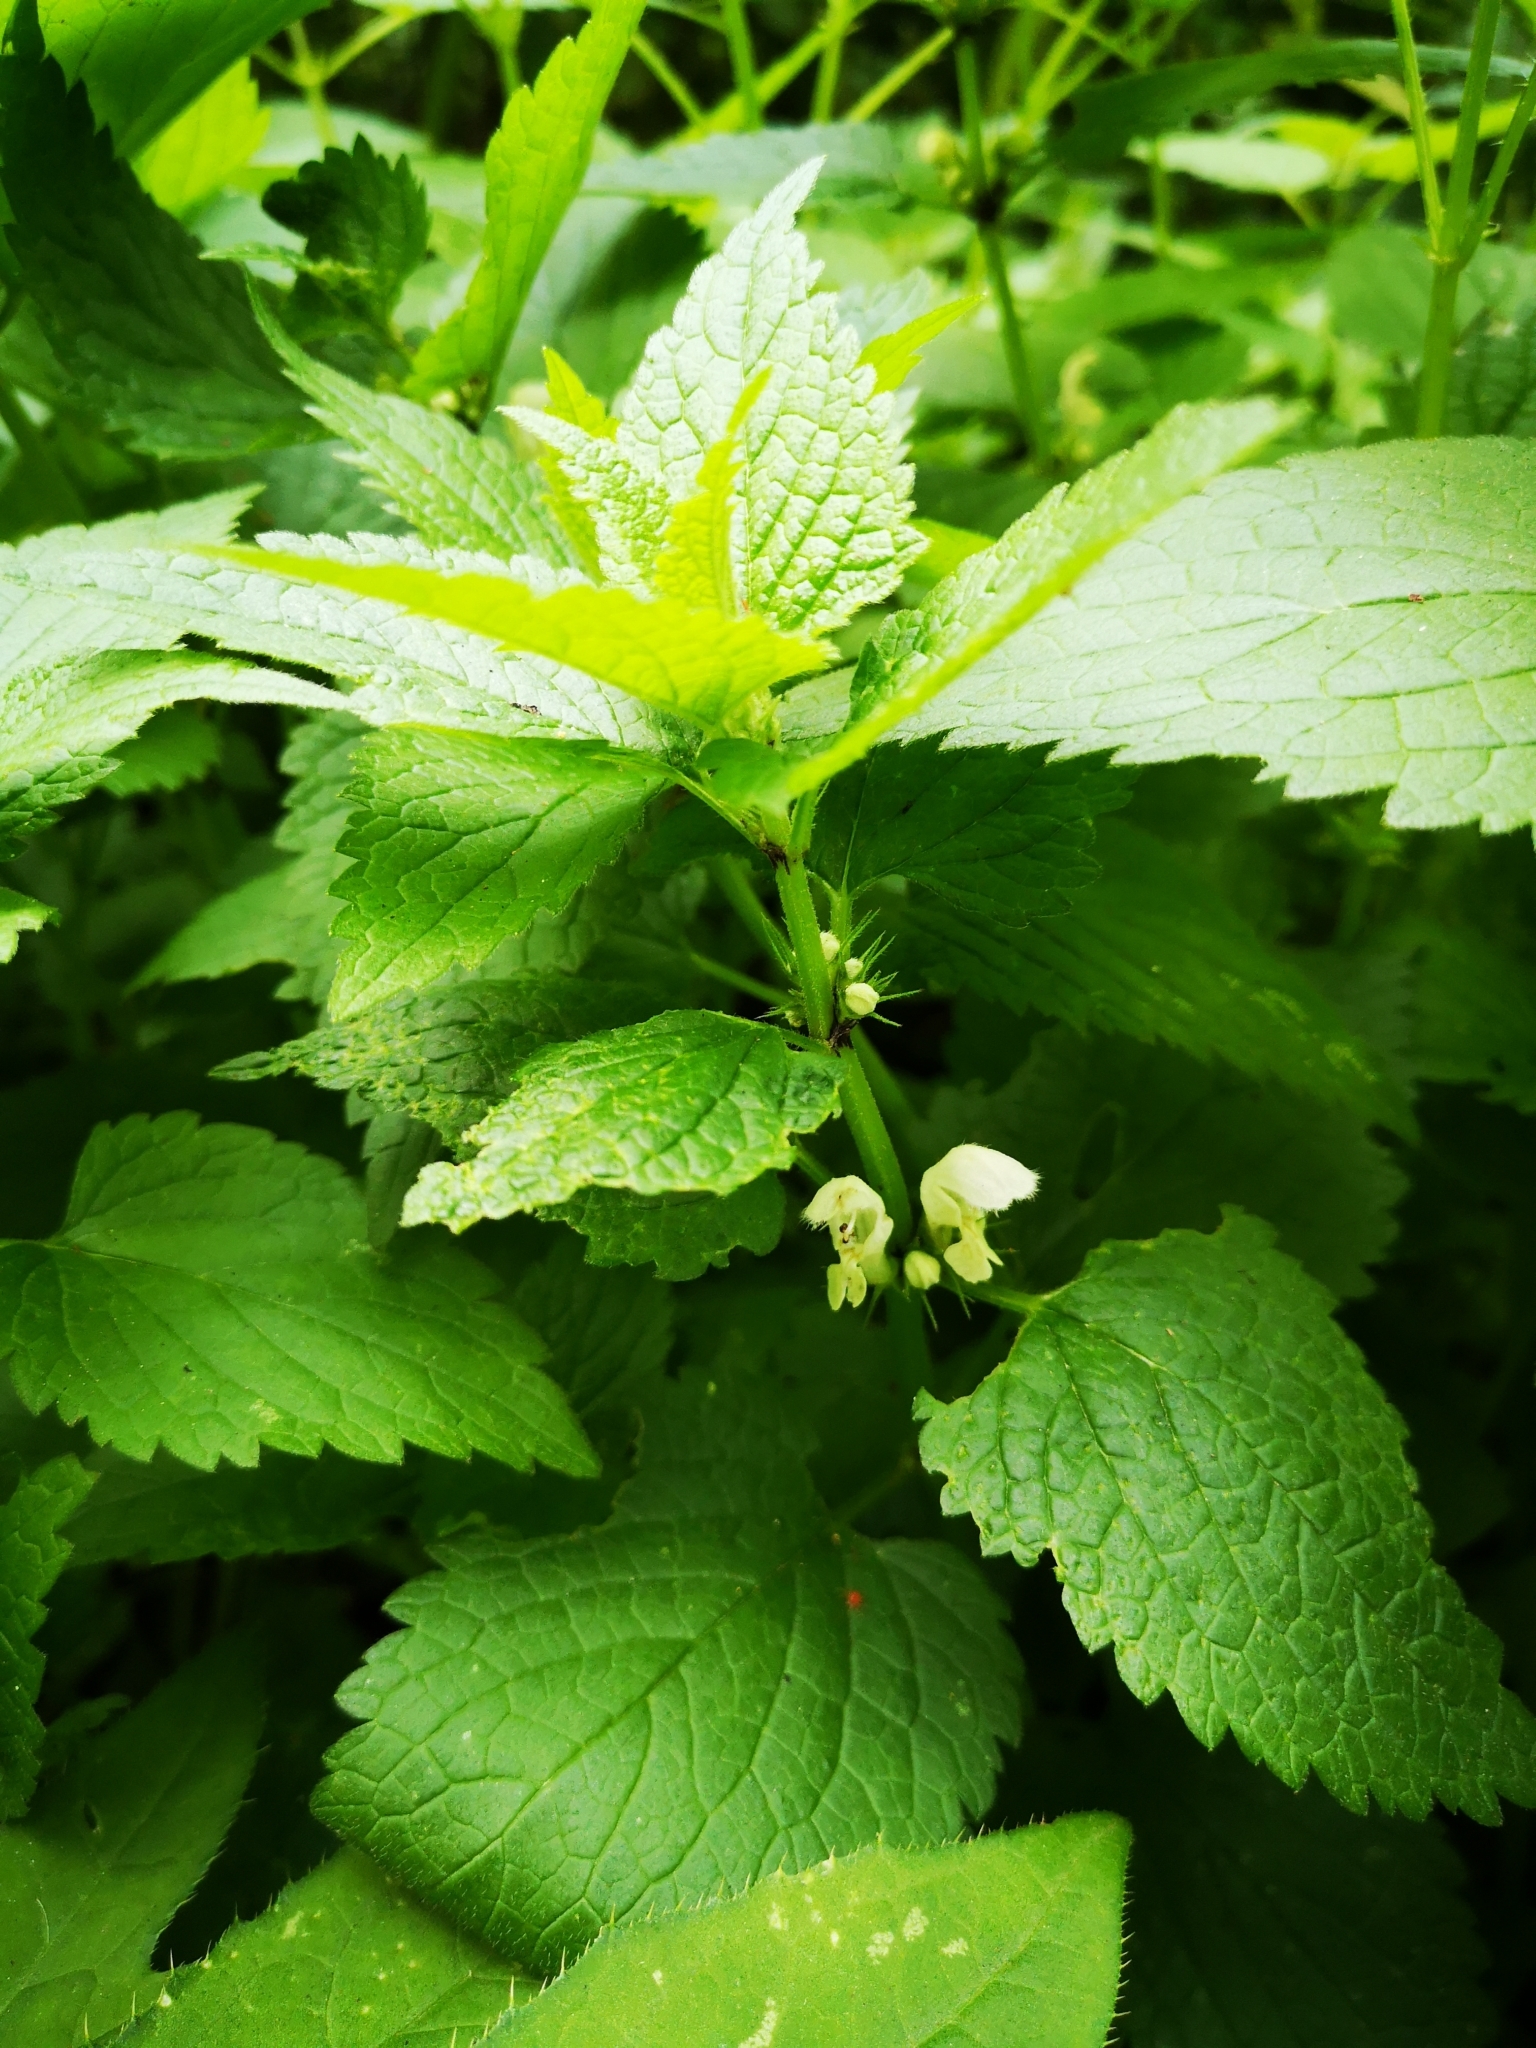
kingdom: Plantae
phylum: Tracheophyta
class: Magnoliopsida
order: Lamiales
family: Lamiaceae
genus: Lamium
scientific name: Lamium album
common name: White dead-nettle
